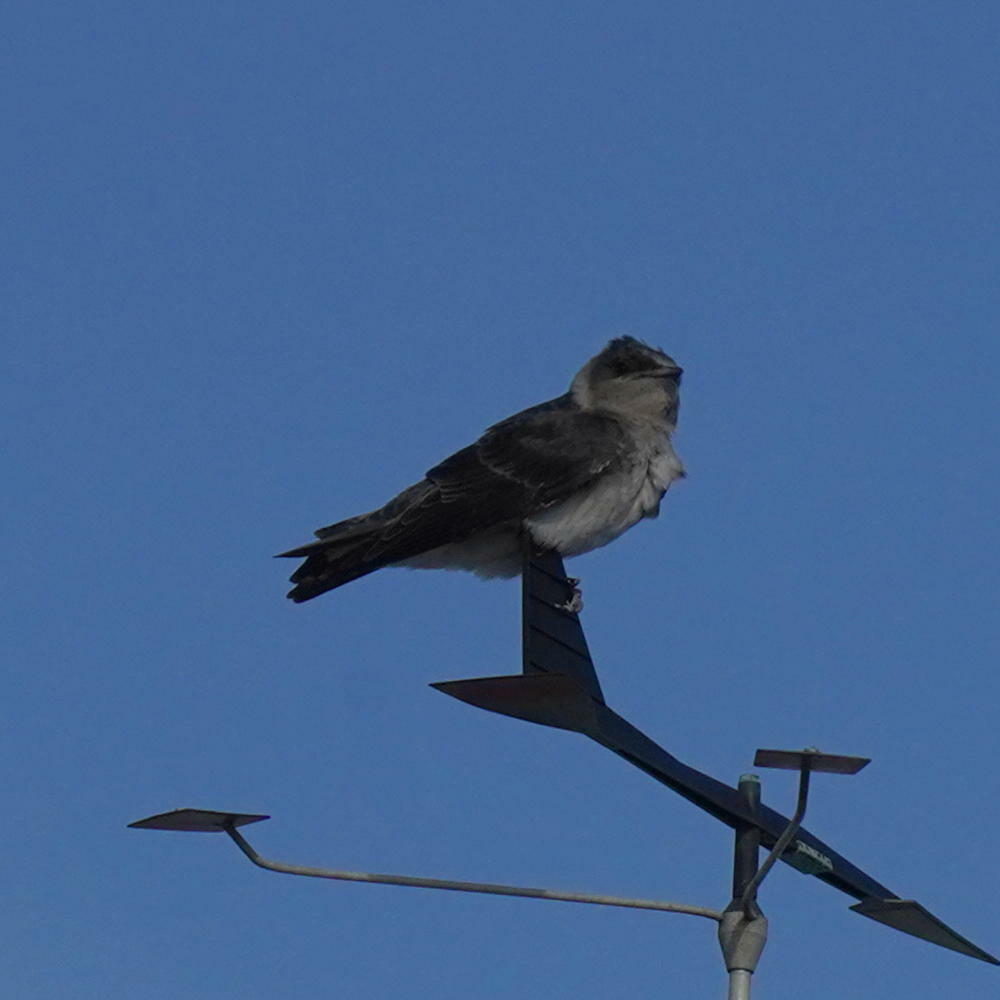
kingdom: Animalia
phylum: Chordata
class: Aves
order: Passeriformes
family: Hirundinidae
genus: Progne
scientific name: Progne subis
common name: Purple martin
